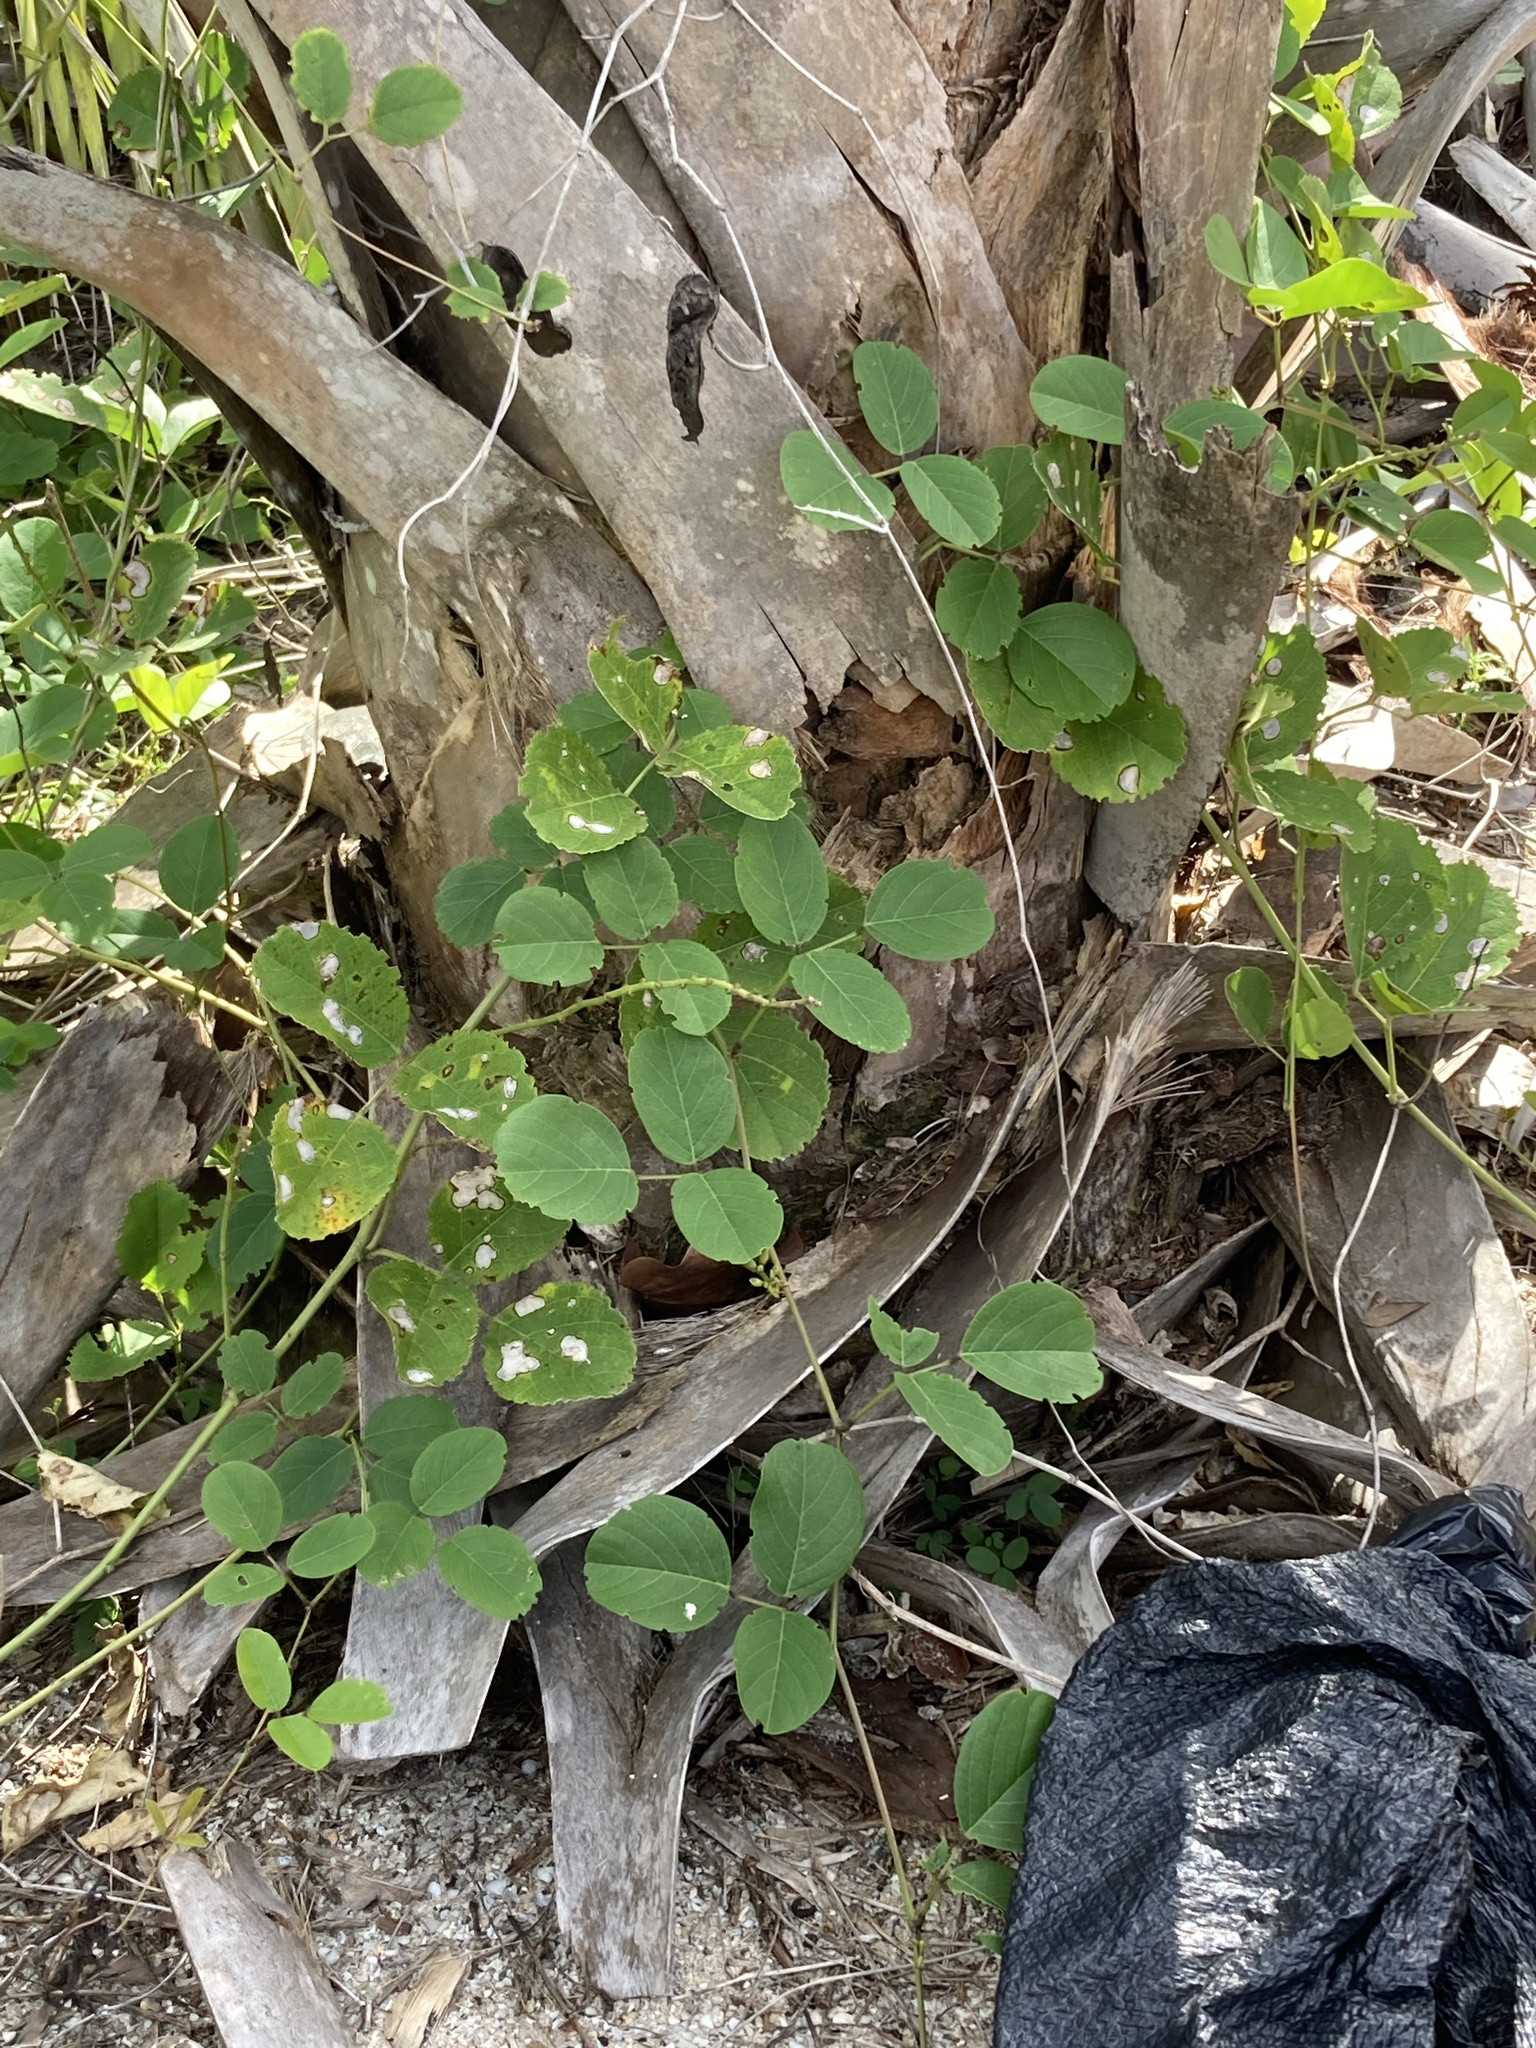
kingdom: Plantae
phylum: Tracheophyta
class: Magnoliopsida
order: Fabales
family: Fabaceae
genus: Canavalia
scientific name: Canavalia rosea
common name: Beach-bean
